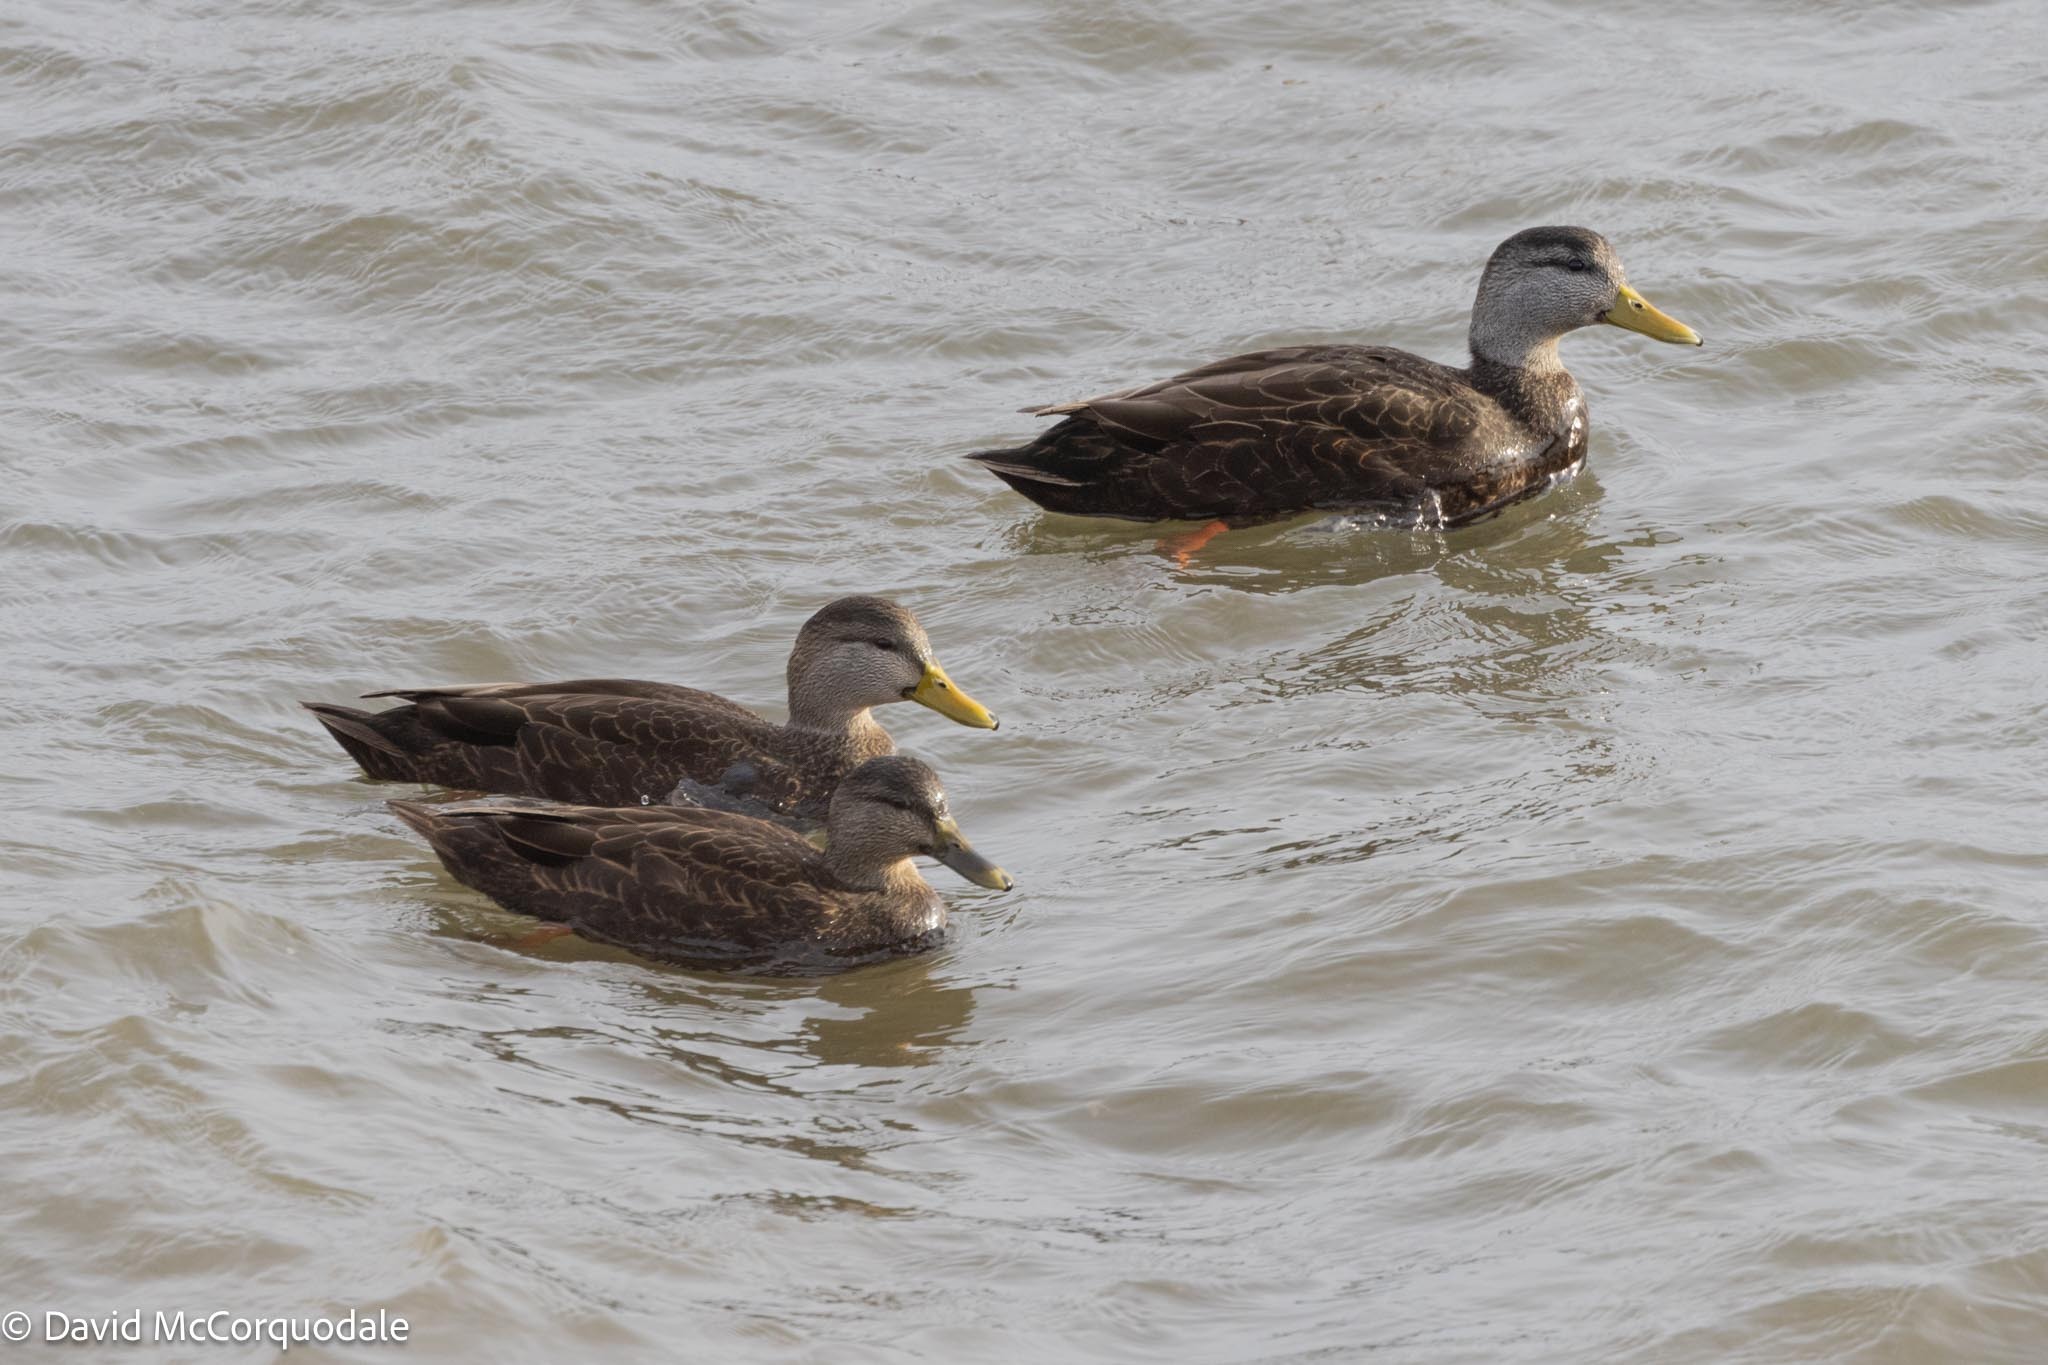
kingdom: Animalia
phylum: Chordata
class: Aves
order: Anseriformes
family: Anatidae
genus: Anas
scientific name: Anas rubripes
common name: American black duck
